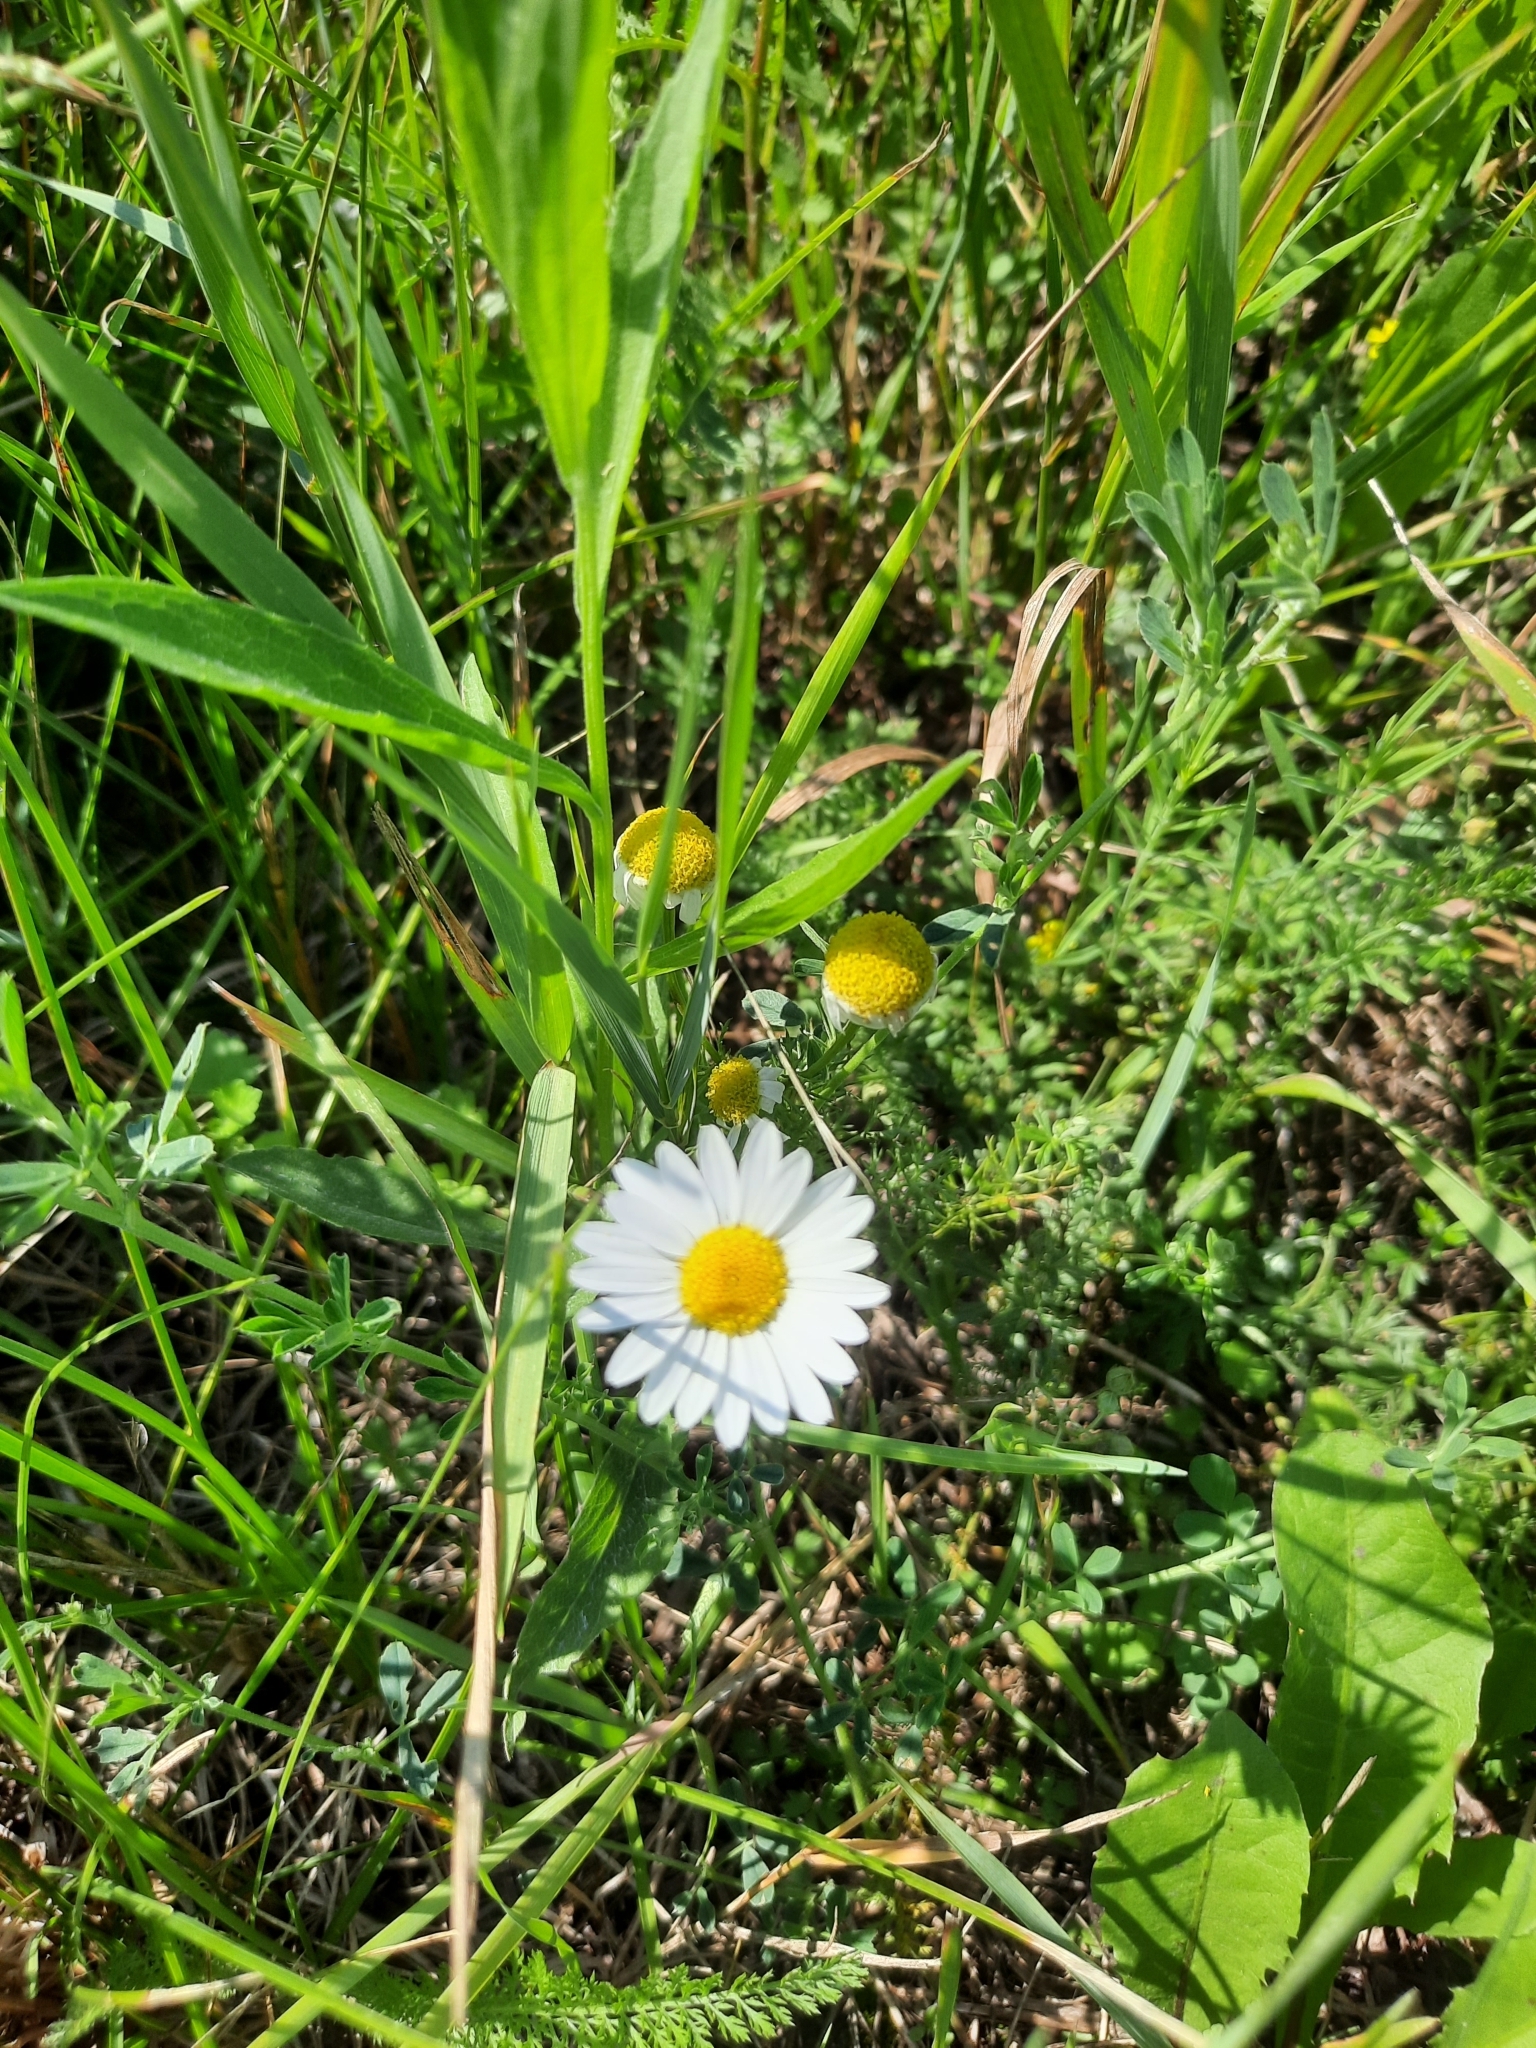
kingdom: Plantae
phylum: Tracheophyta
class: Magnoliopsida
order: Asterales
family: Asteraceae
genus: Tripleurospermum
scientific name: Tripleurospermum inodorum
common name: Scentless mayweed
